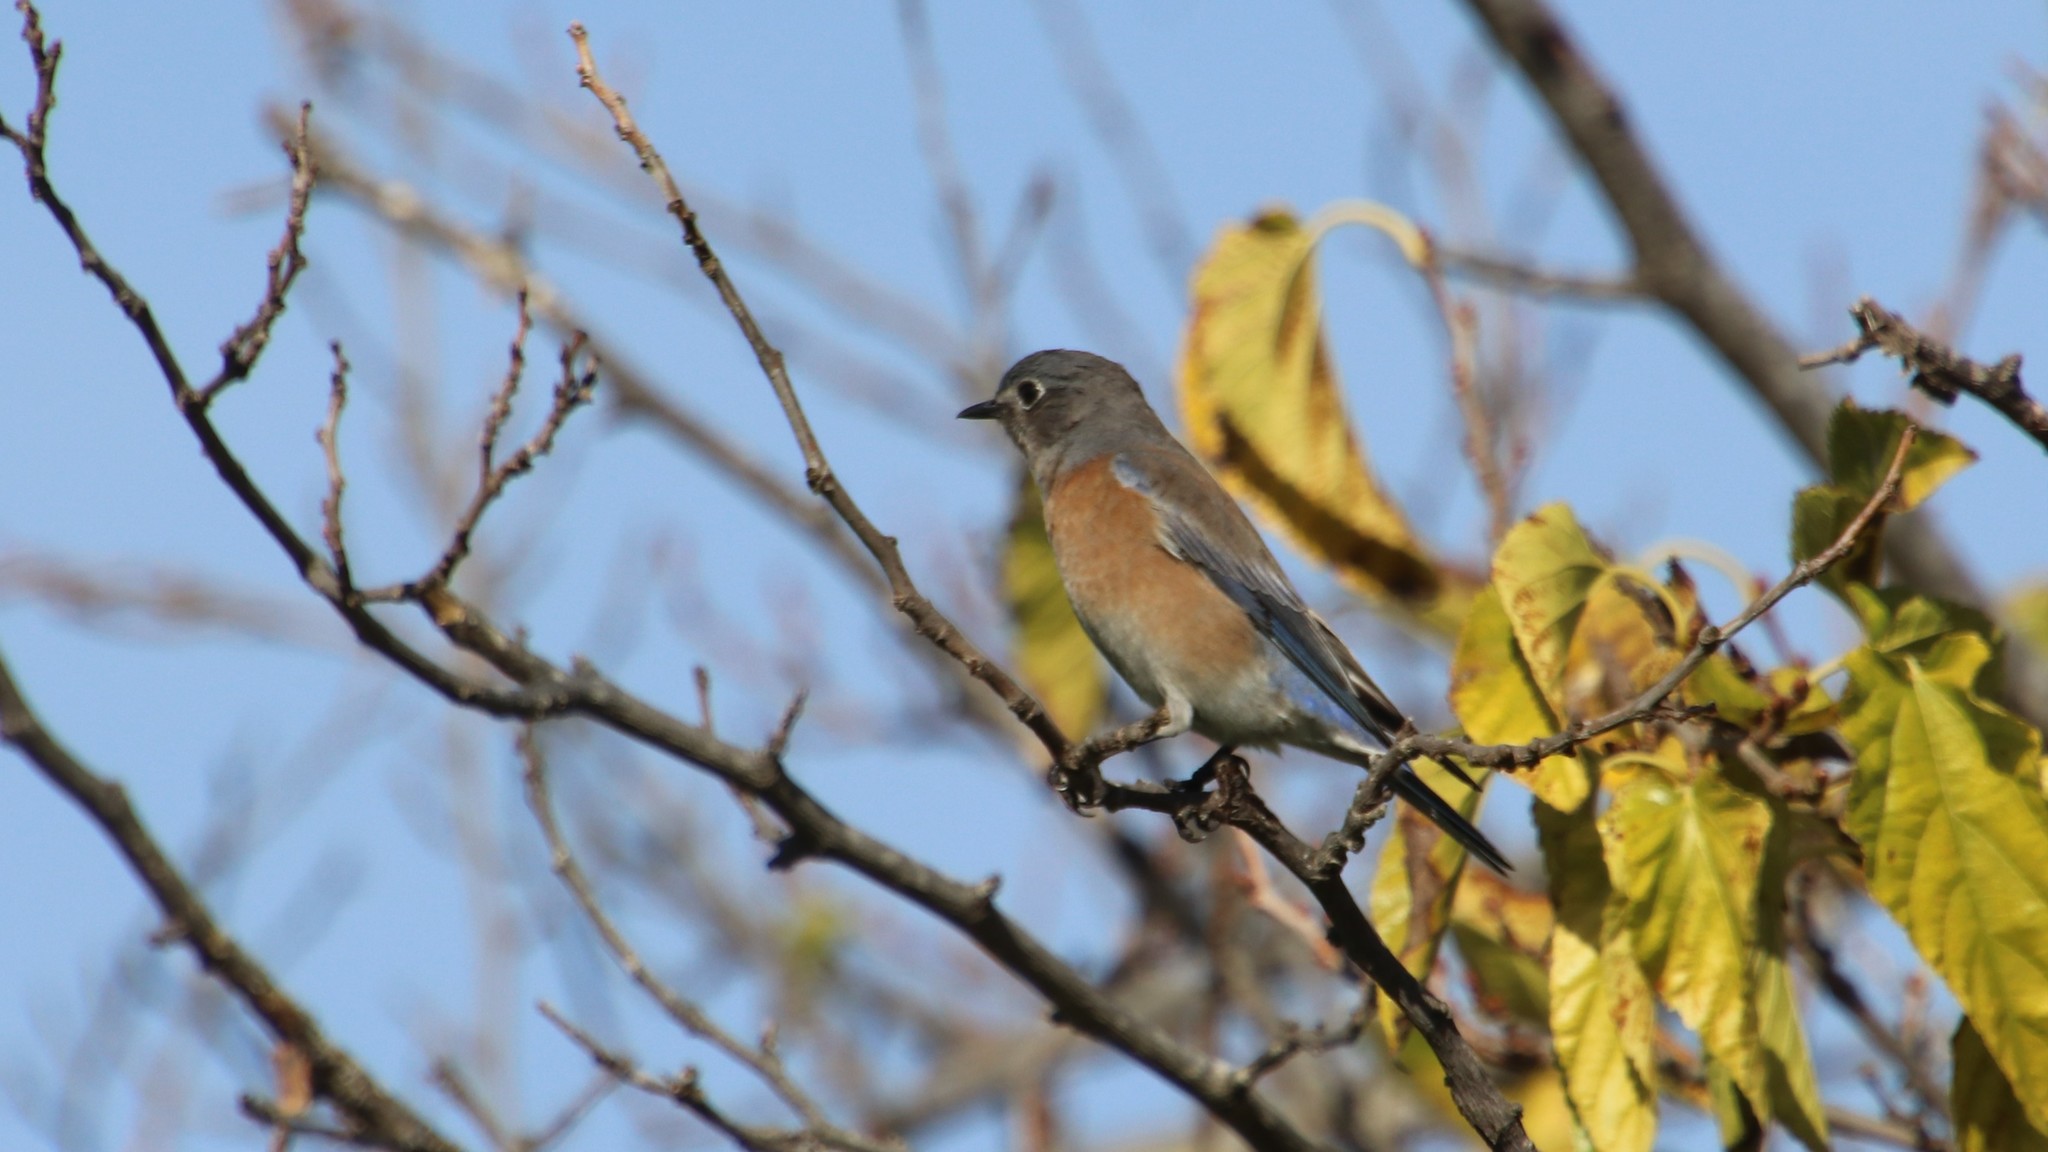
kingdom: Animalia
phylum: Chordata
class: Aves
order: Passeriformes
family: Turdidae
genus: Sialia
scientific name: Sialia mexicana
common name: Western bluebird
